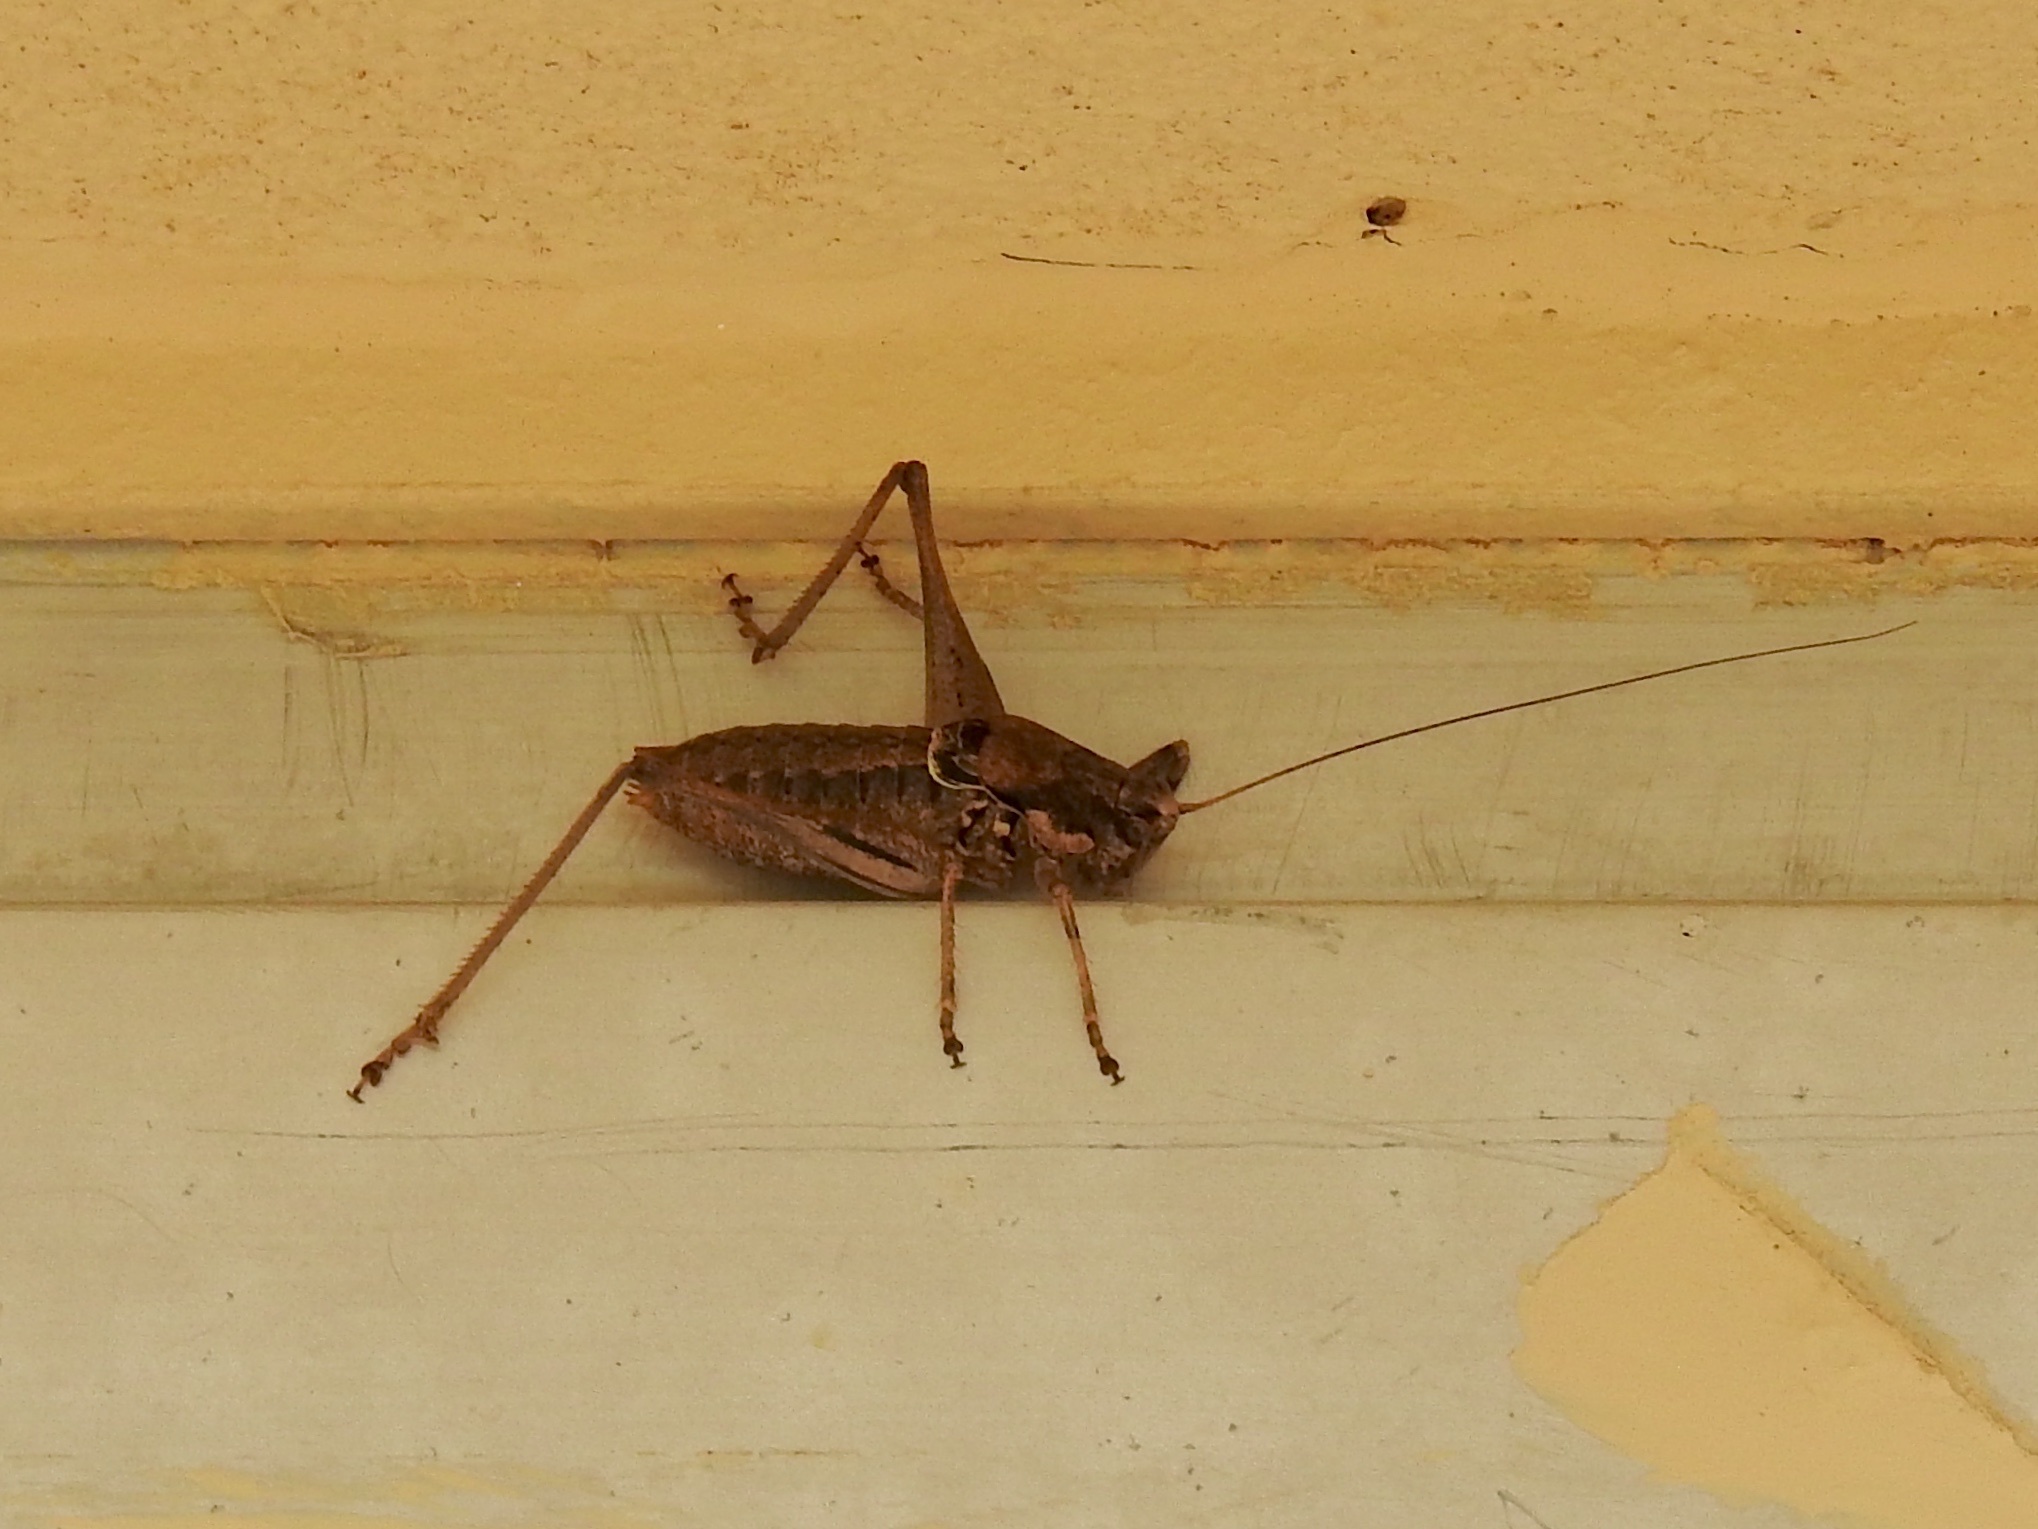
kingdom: Animalia
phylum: Arthropoda
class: Insecta
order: Orthoptera
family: Tettigoniidae
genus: Eremopedes
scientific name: Eremopedes balli
